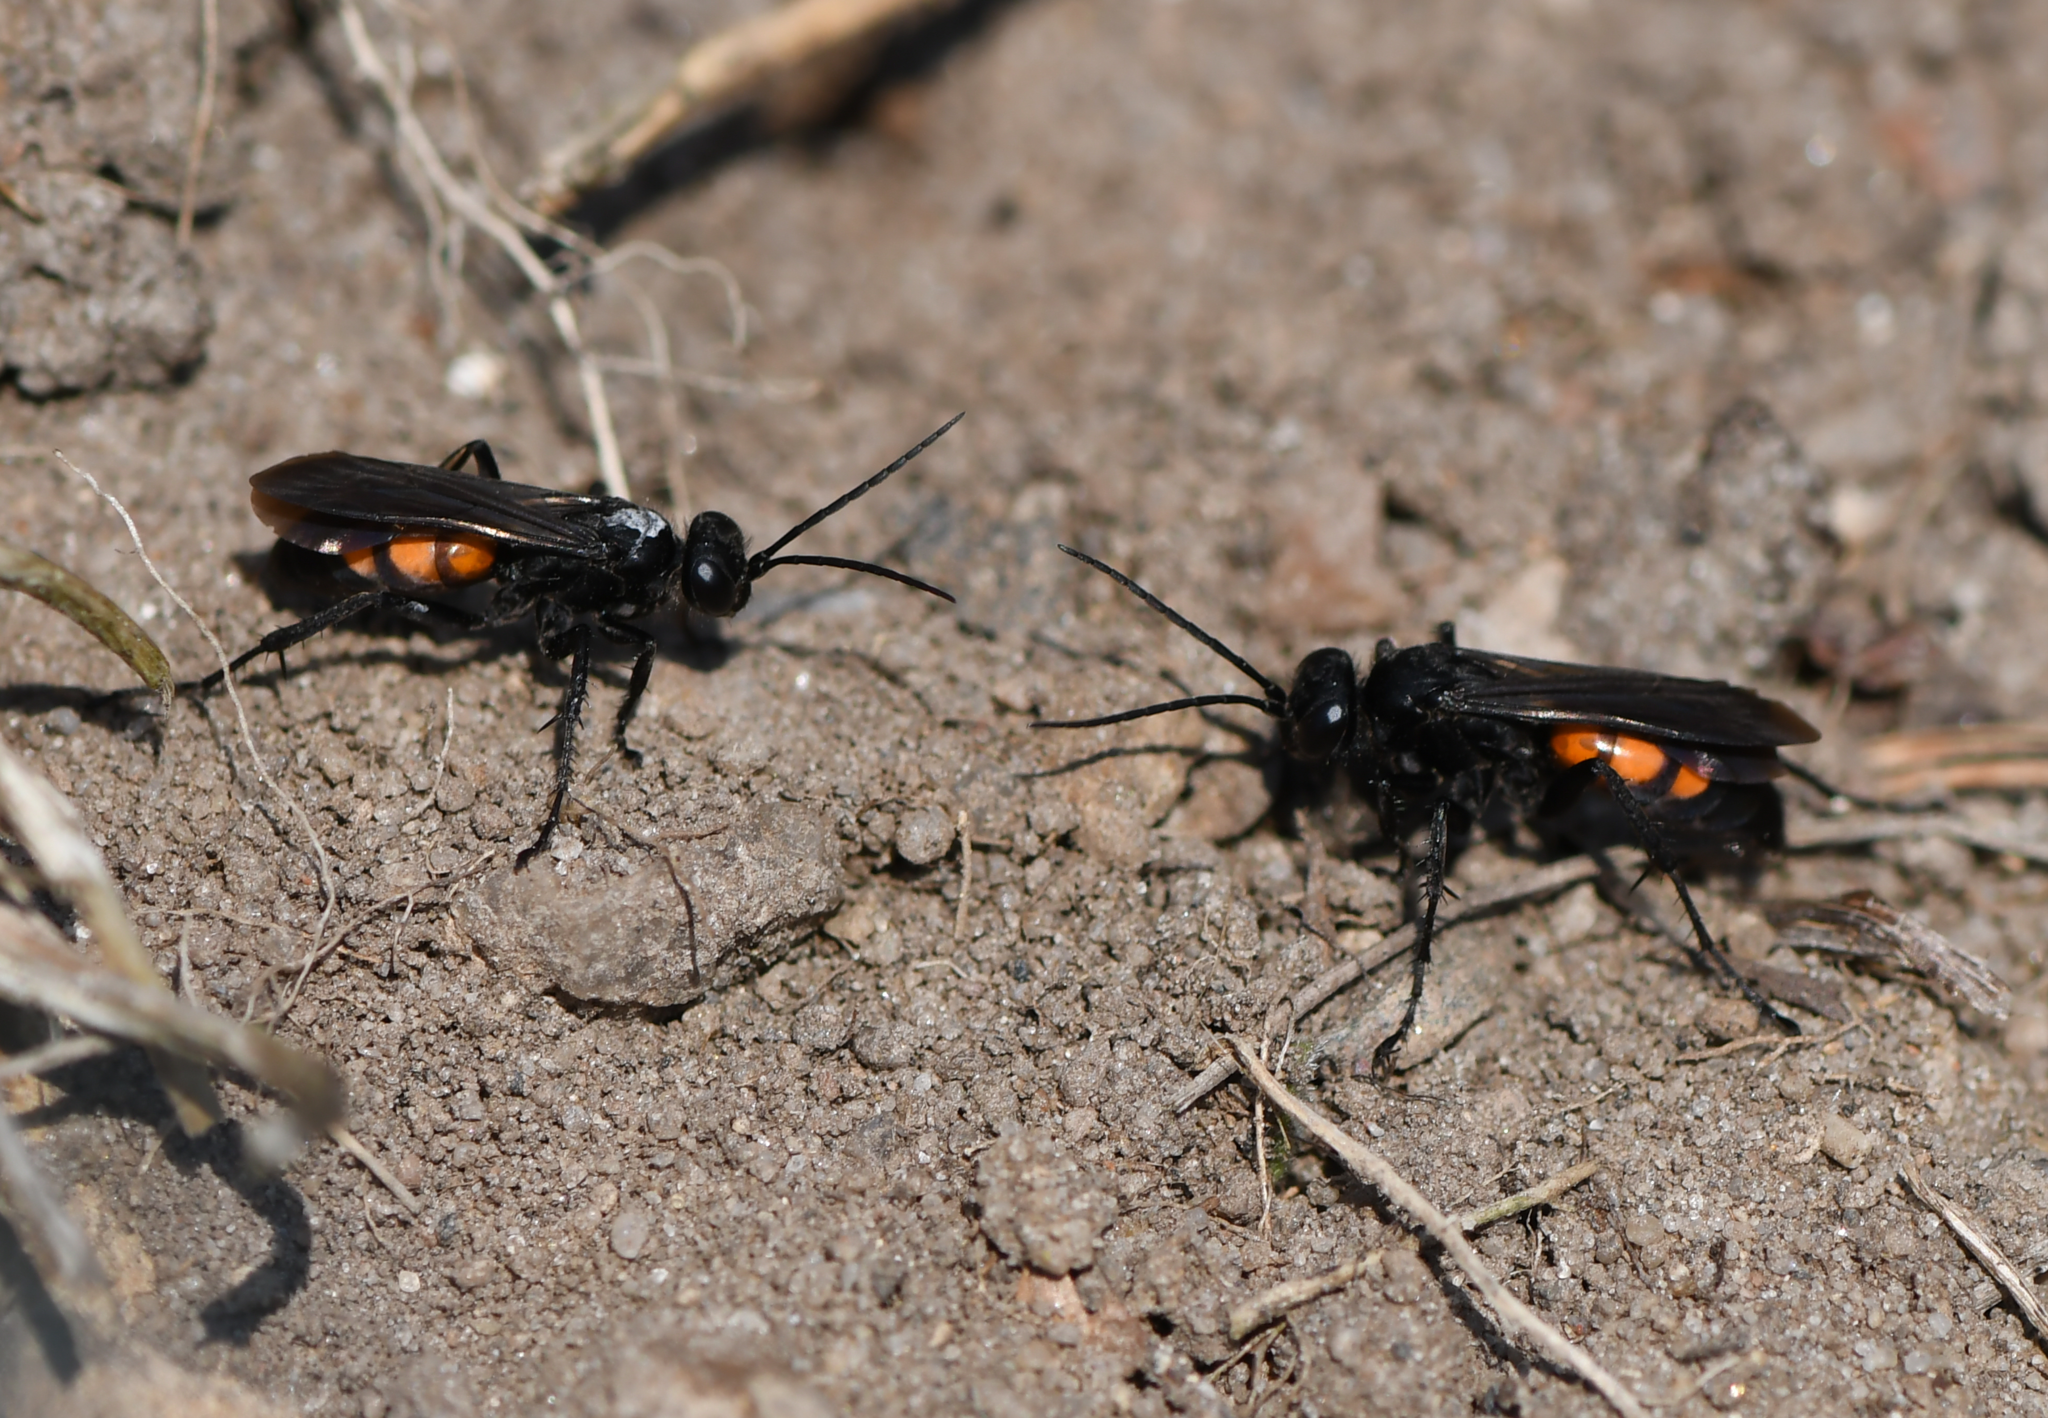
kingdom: Animalia
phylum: Arthropoda
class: Insecta
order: Hymenoptera
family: Pompilidae
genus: Anoplius
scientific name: Anoplius viaticus
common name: Black banded spider wasp
